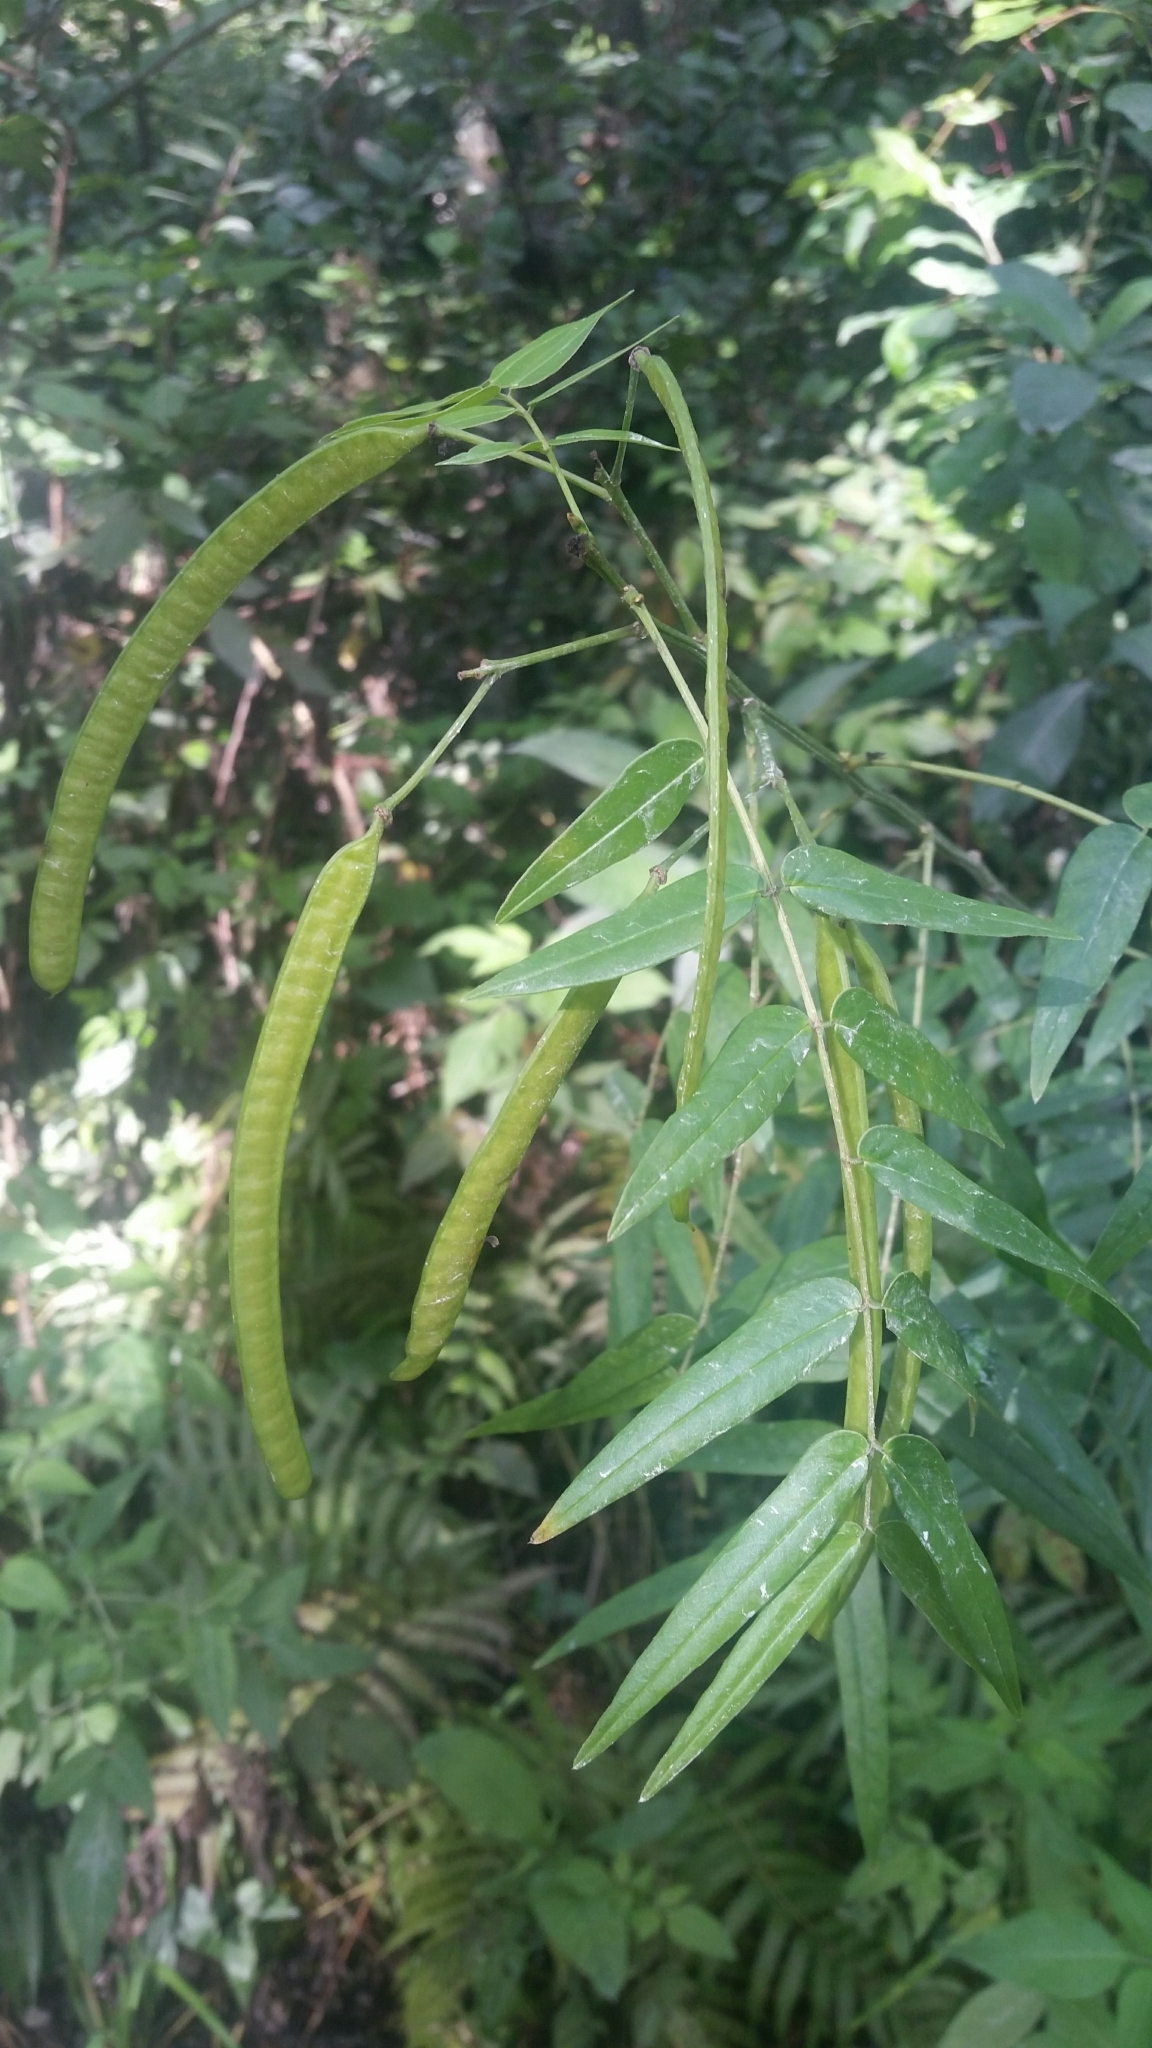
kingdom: Plantae
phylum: Tracheophyta
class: Magnoliopsida
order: Fabales
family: Fabaceae
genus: Senna
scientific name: Senna ligustrina
